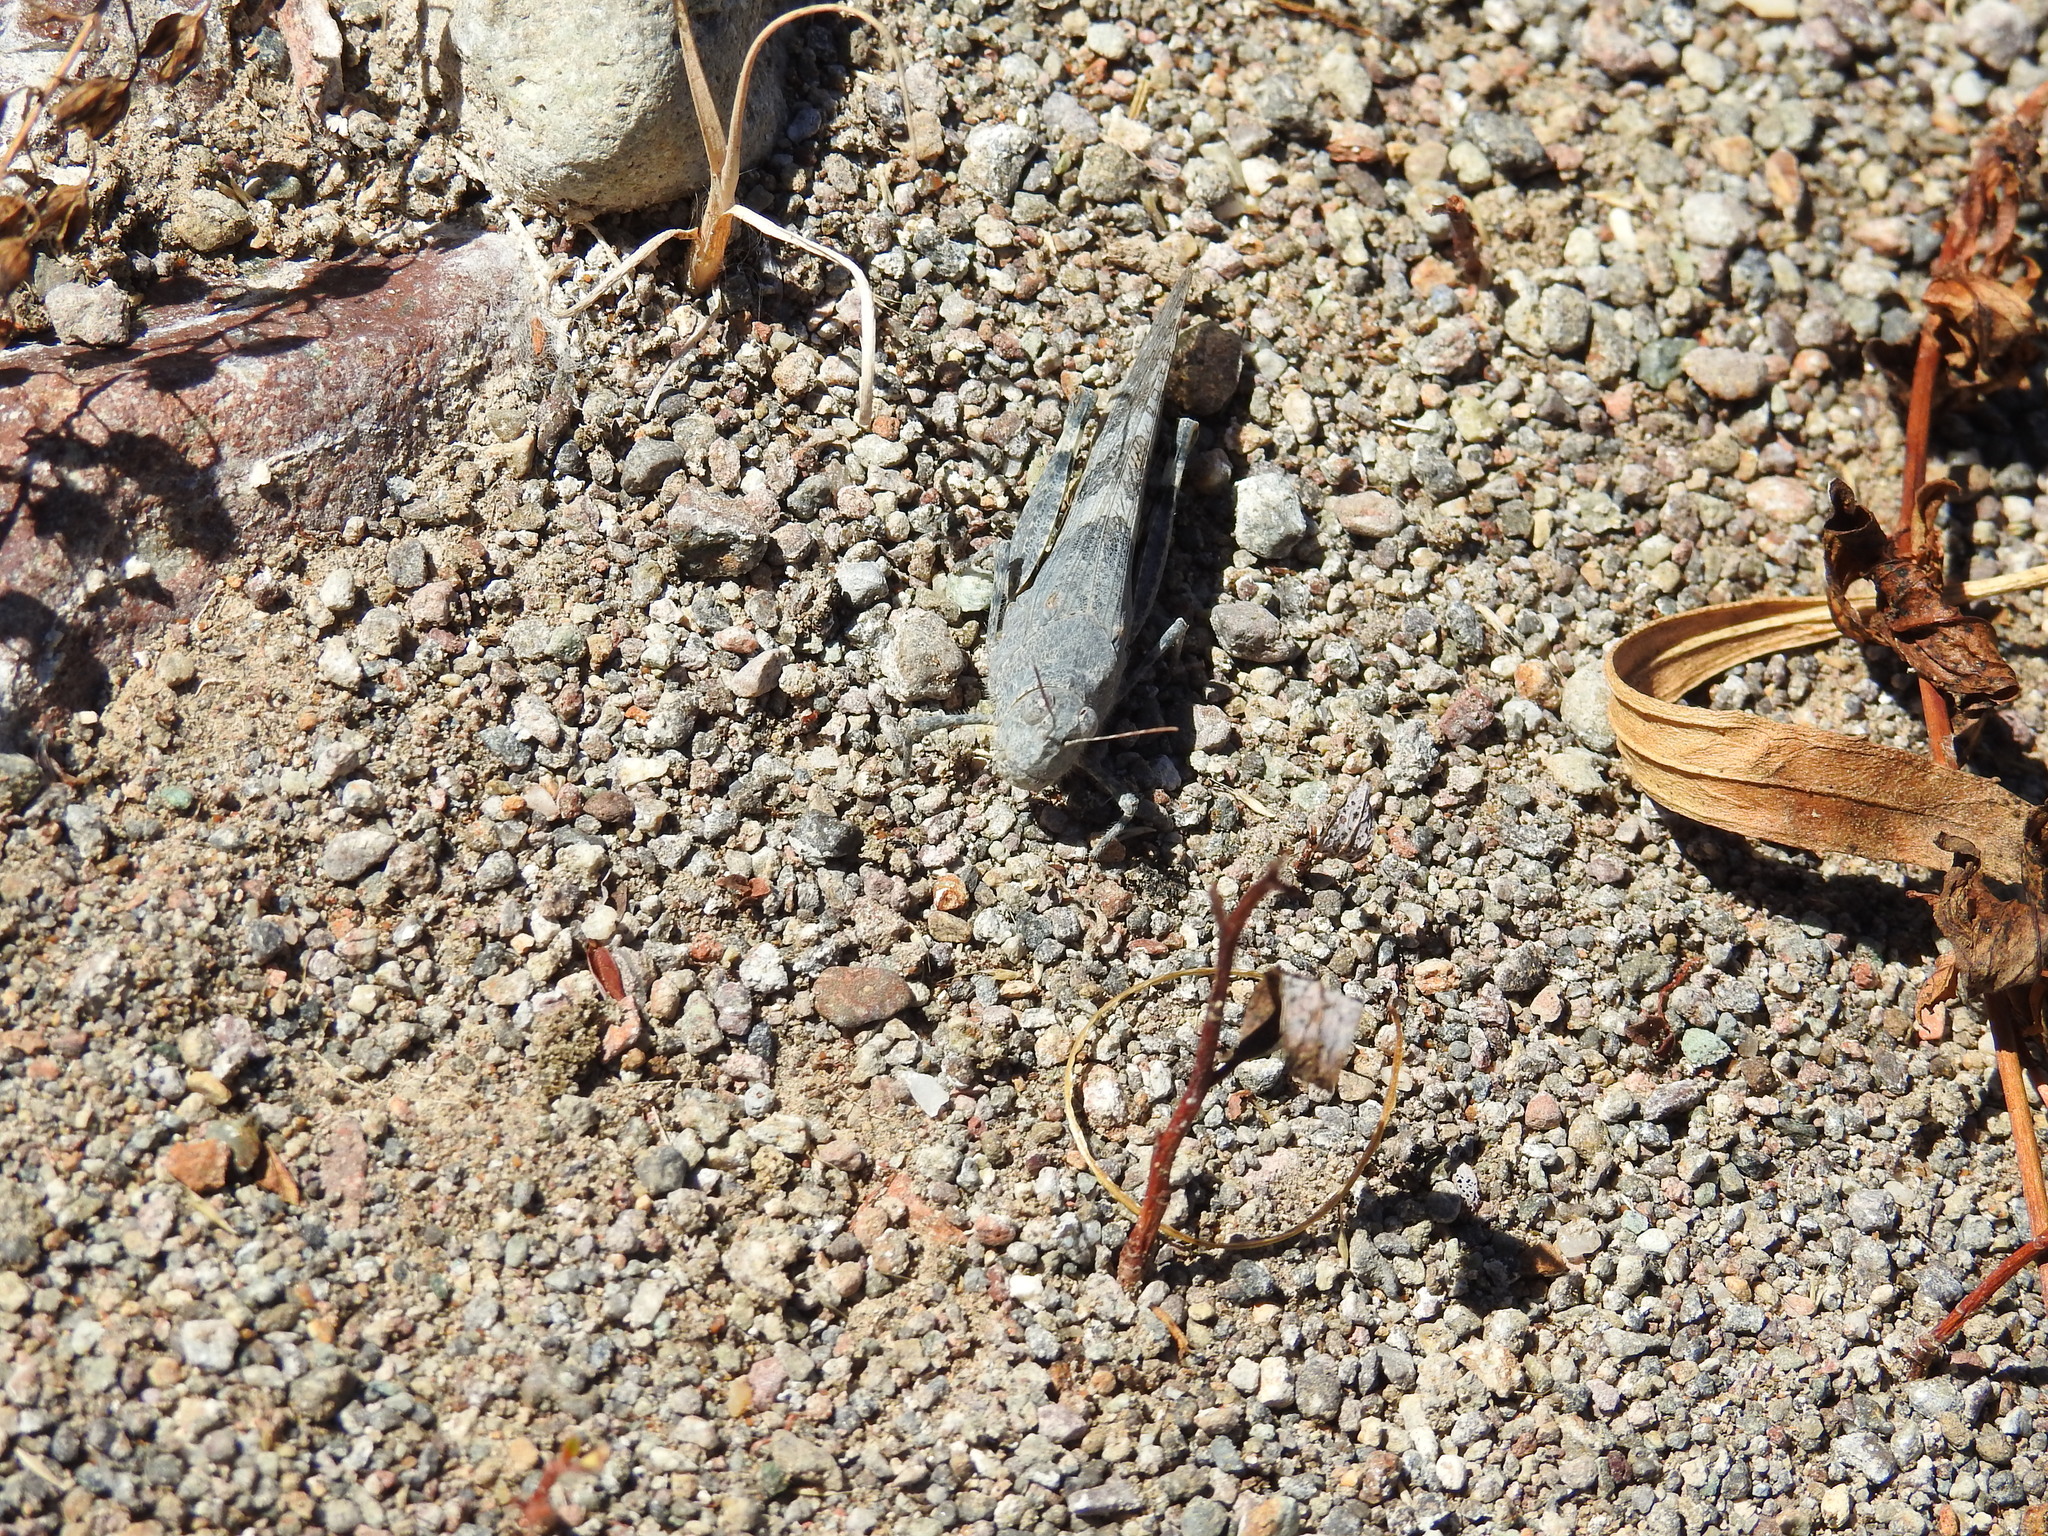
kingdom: Animalia
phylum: Arthropoda
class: Insecta
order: Orthoptera
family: Acrididae
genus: Trimerotropis
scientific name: Trimerotropis pallidipennis
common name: Pallid-winged grasshopper
